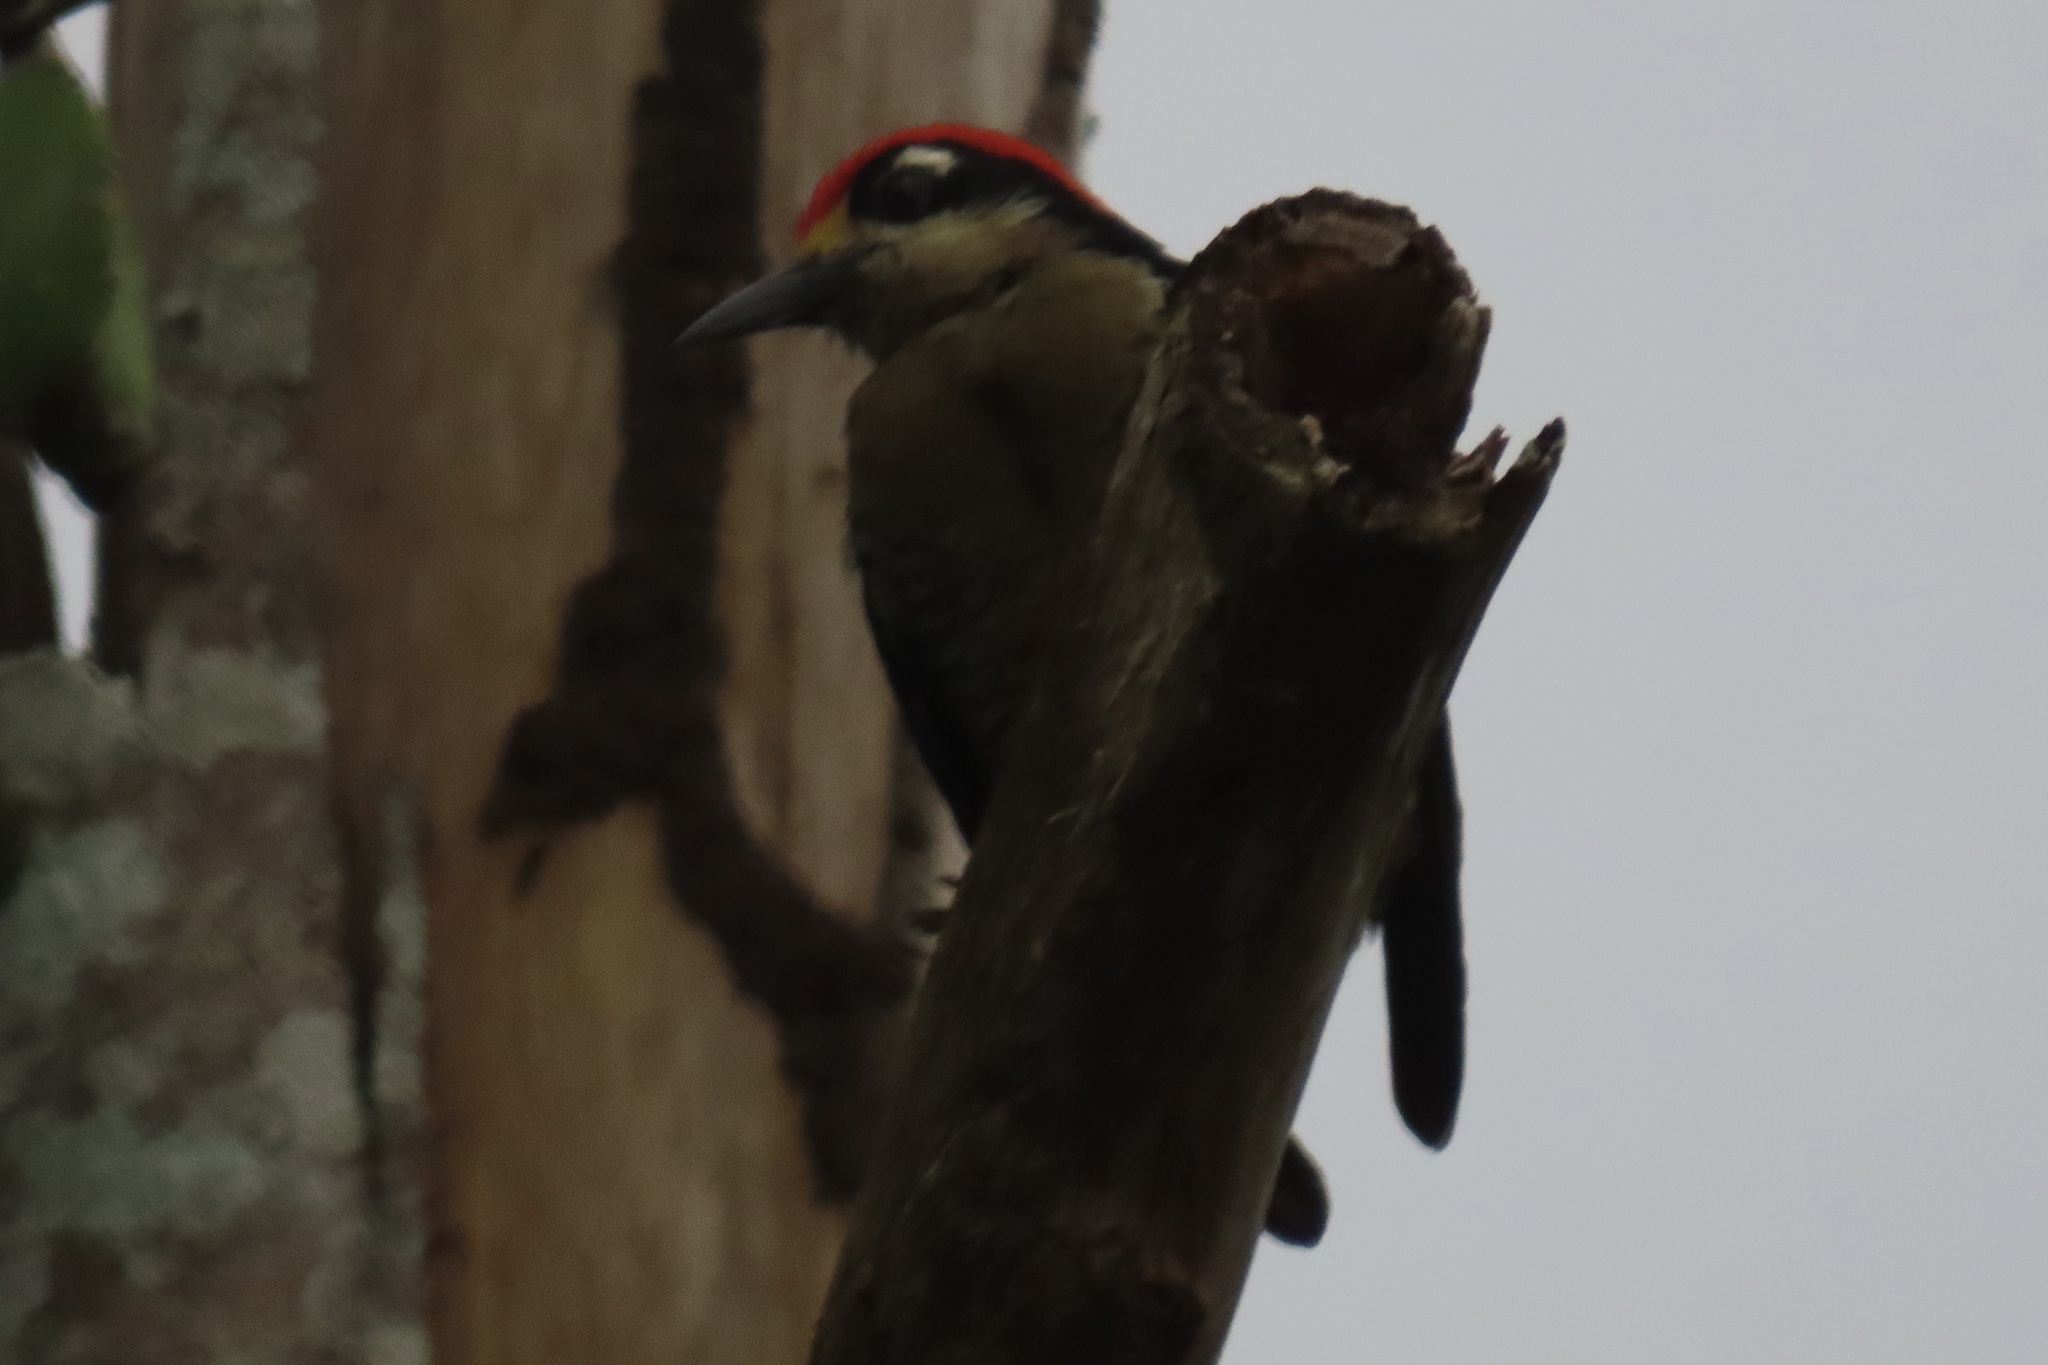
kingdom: Animalia
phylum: Chordata
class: Aves
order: Piciformes
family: Picidae
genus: Melanerpes
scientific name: Melanerpes pucherani
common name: Black-cheeked woodpecker
